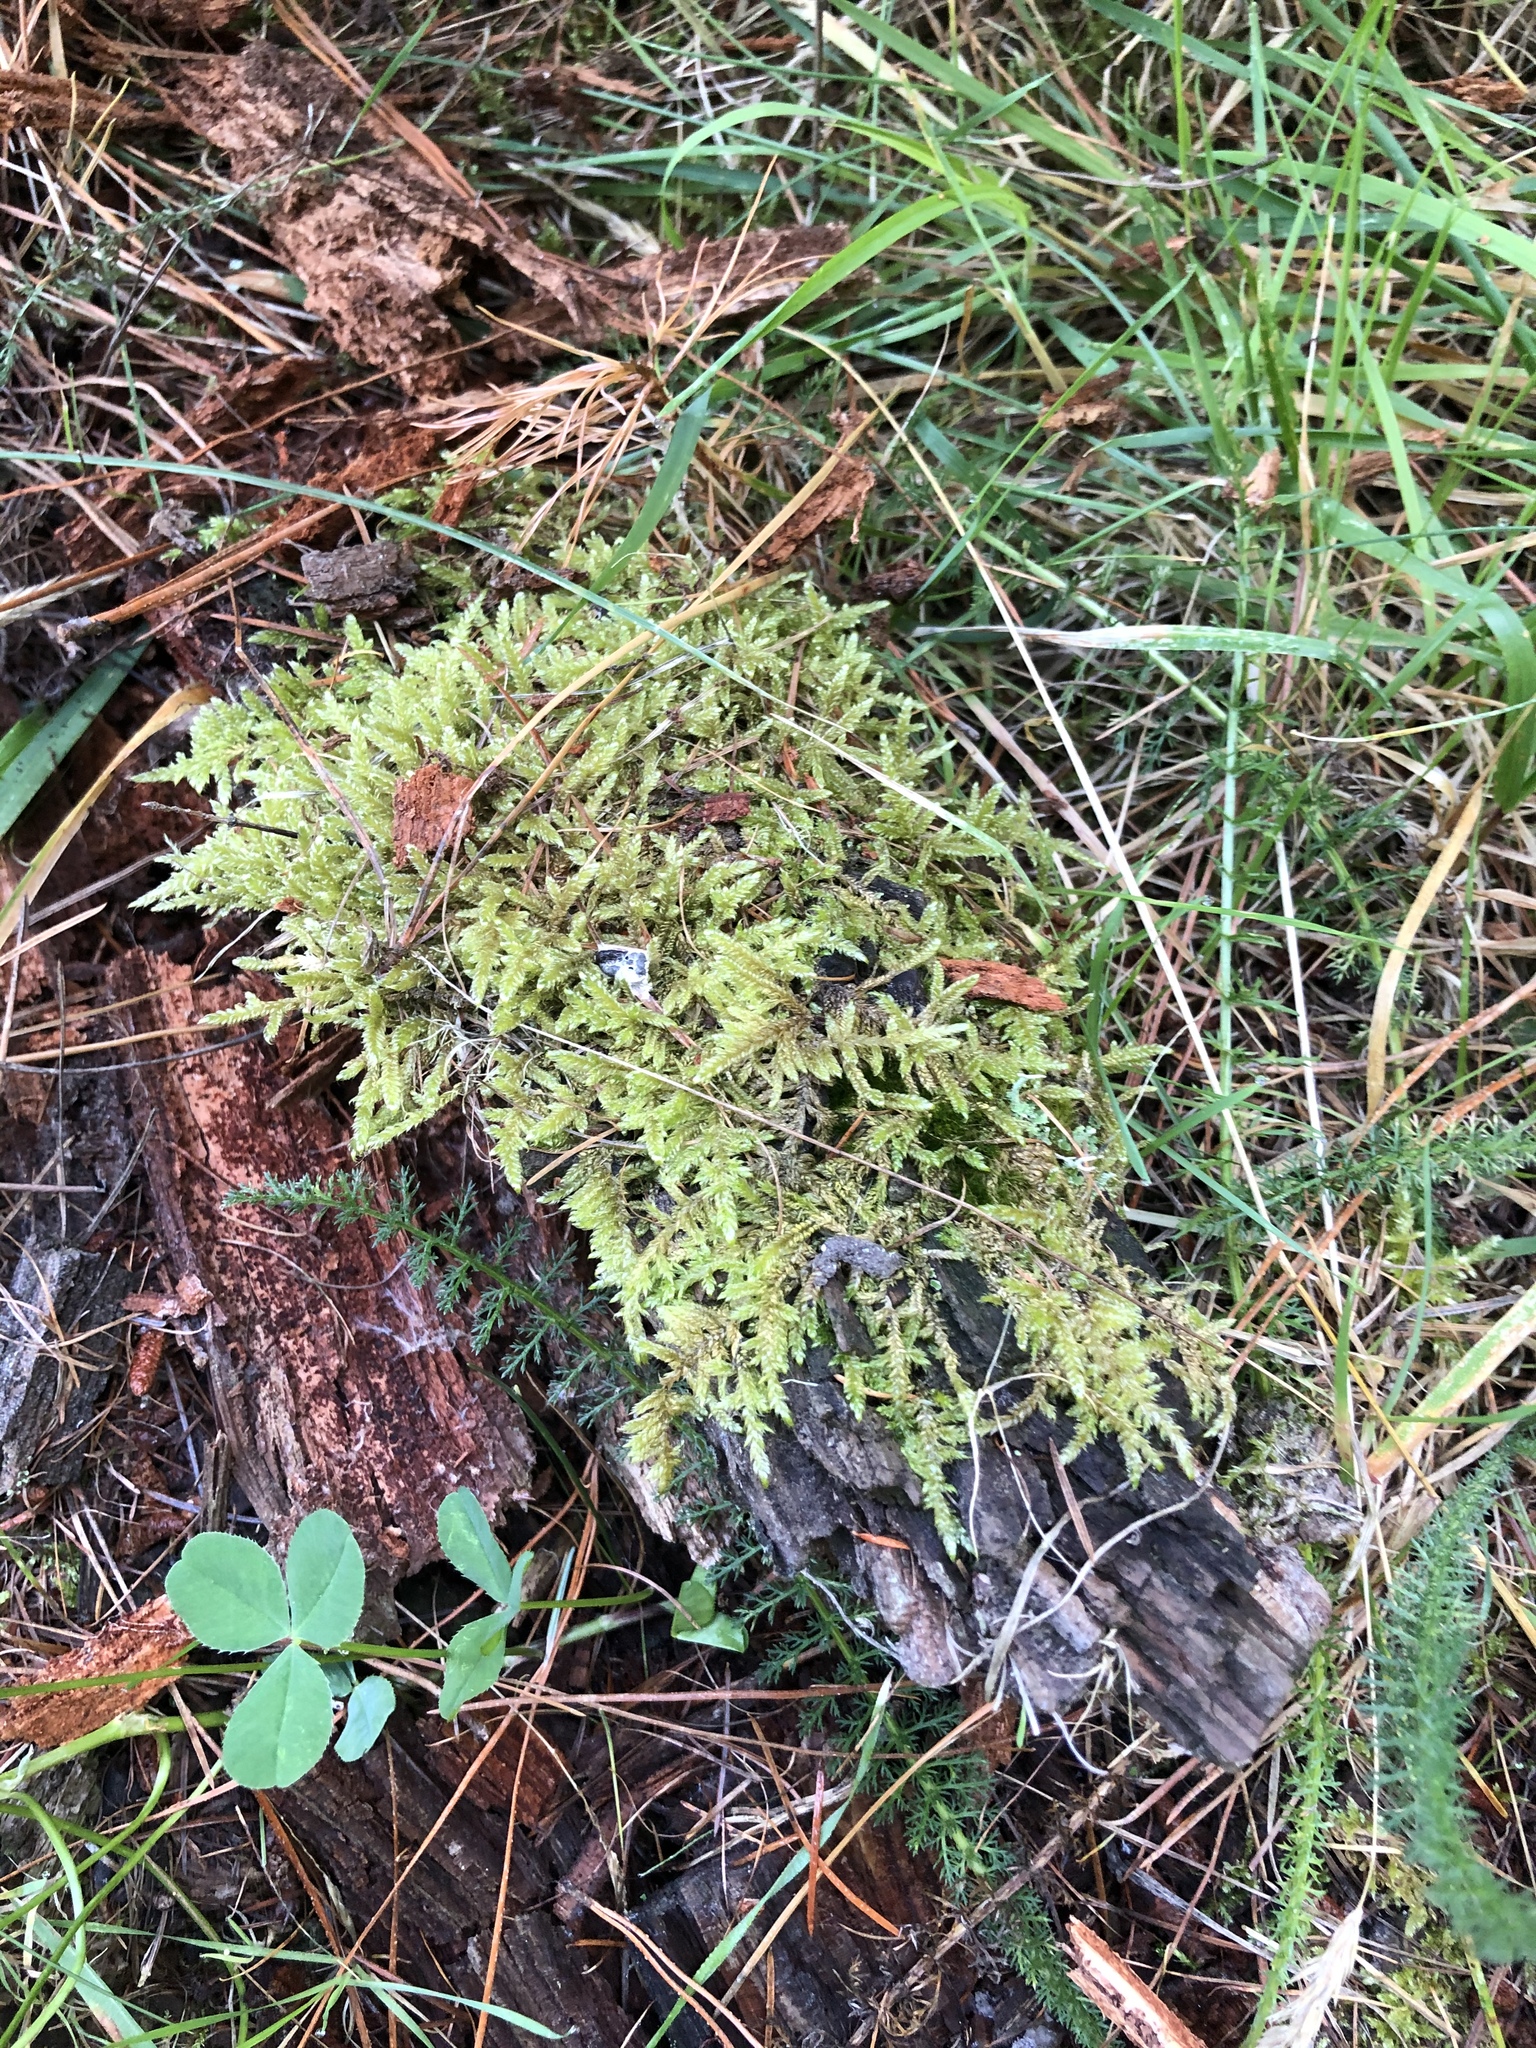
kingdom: Plantae
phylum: Bryophyta
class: Bryopsida
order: Hypnales
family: Hypnaceae
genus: Hypnum
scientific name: Hypnum cupressiforme
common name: Cypress-leaved plait-moss
